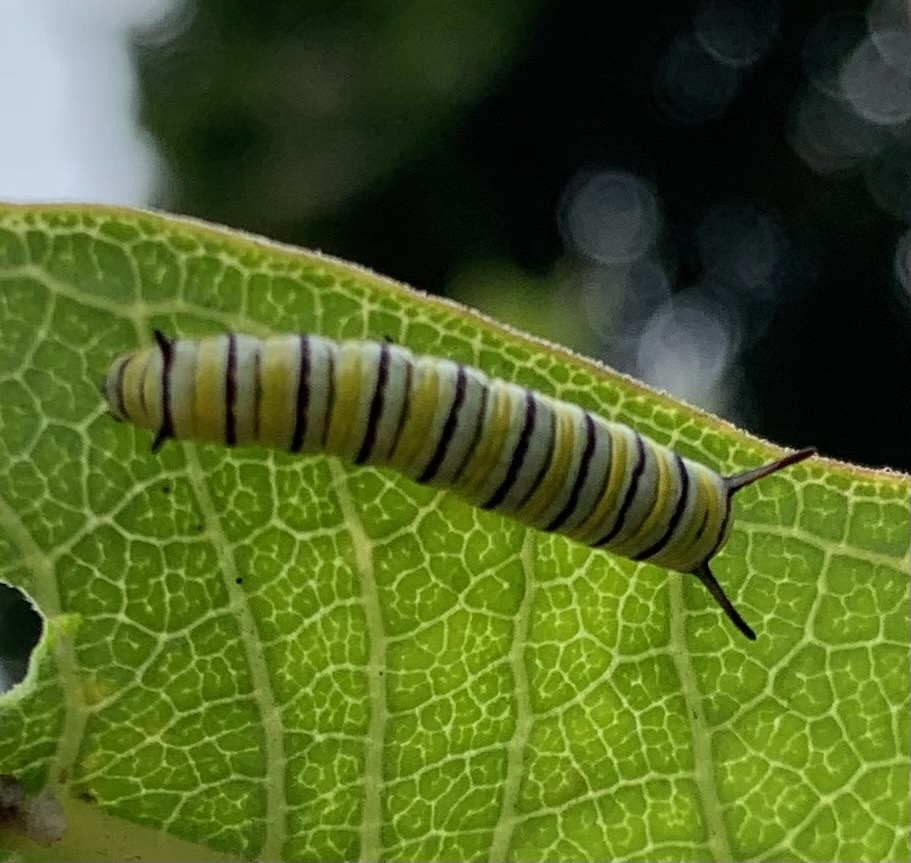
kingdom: Animalia
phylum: Arthropoda
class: Insecta
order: Lepidoptera
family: Nymphalidae
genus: Danaus
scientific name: Danaus plexippus
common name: Monarch
